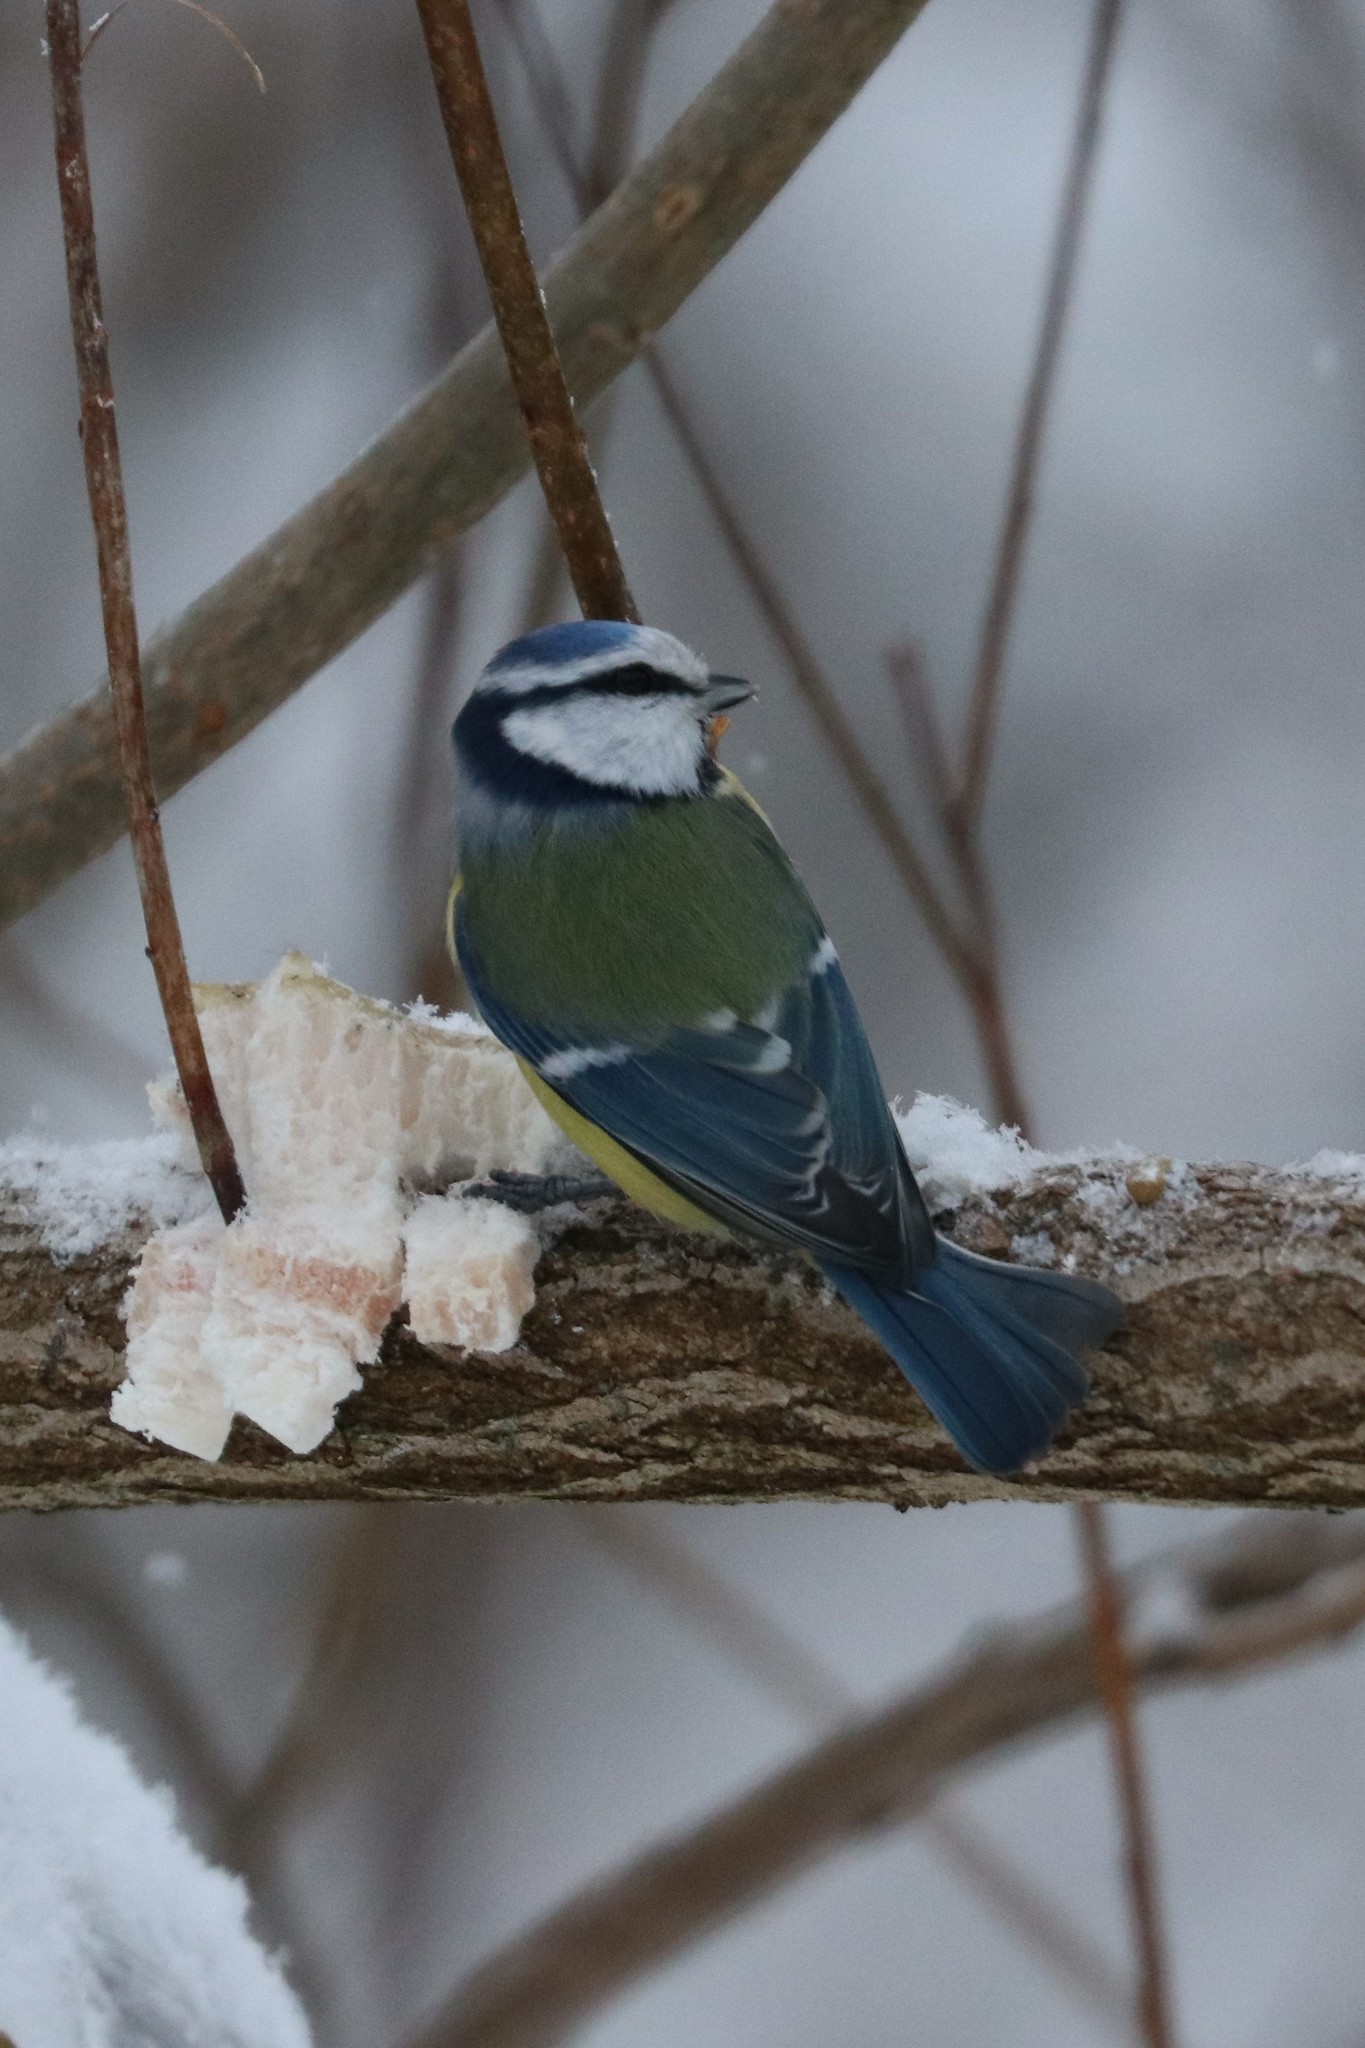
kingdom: Animalia
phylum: Chordata
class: Aves
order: Passeriformes
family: Paridae
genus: Cyanistes
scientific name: Cyanistes caeruleus
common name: Eurasian blue tit
